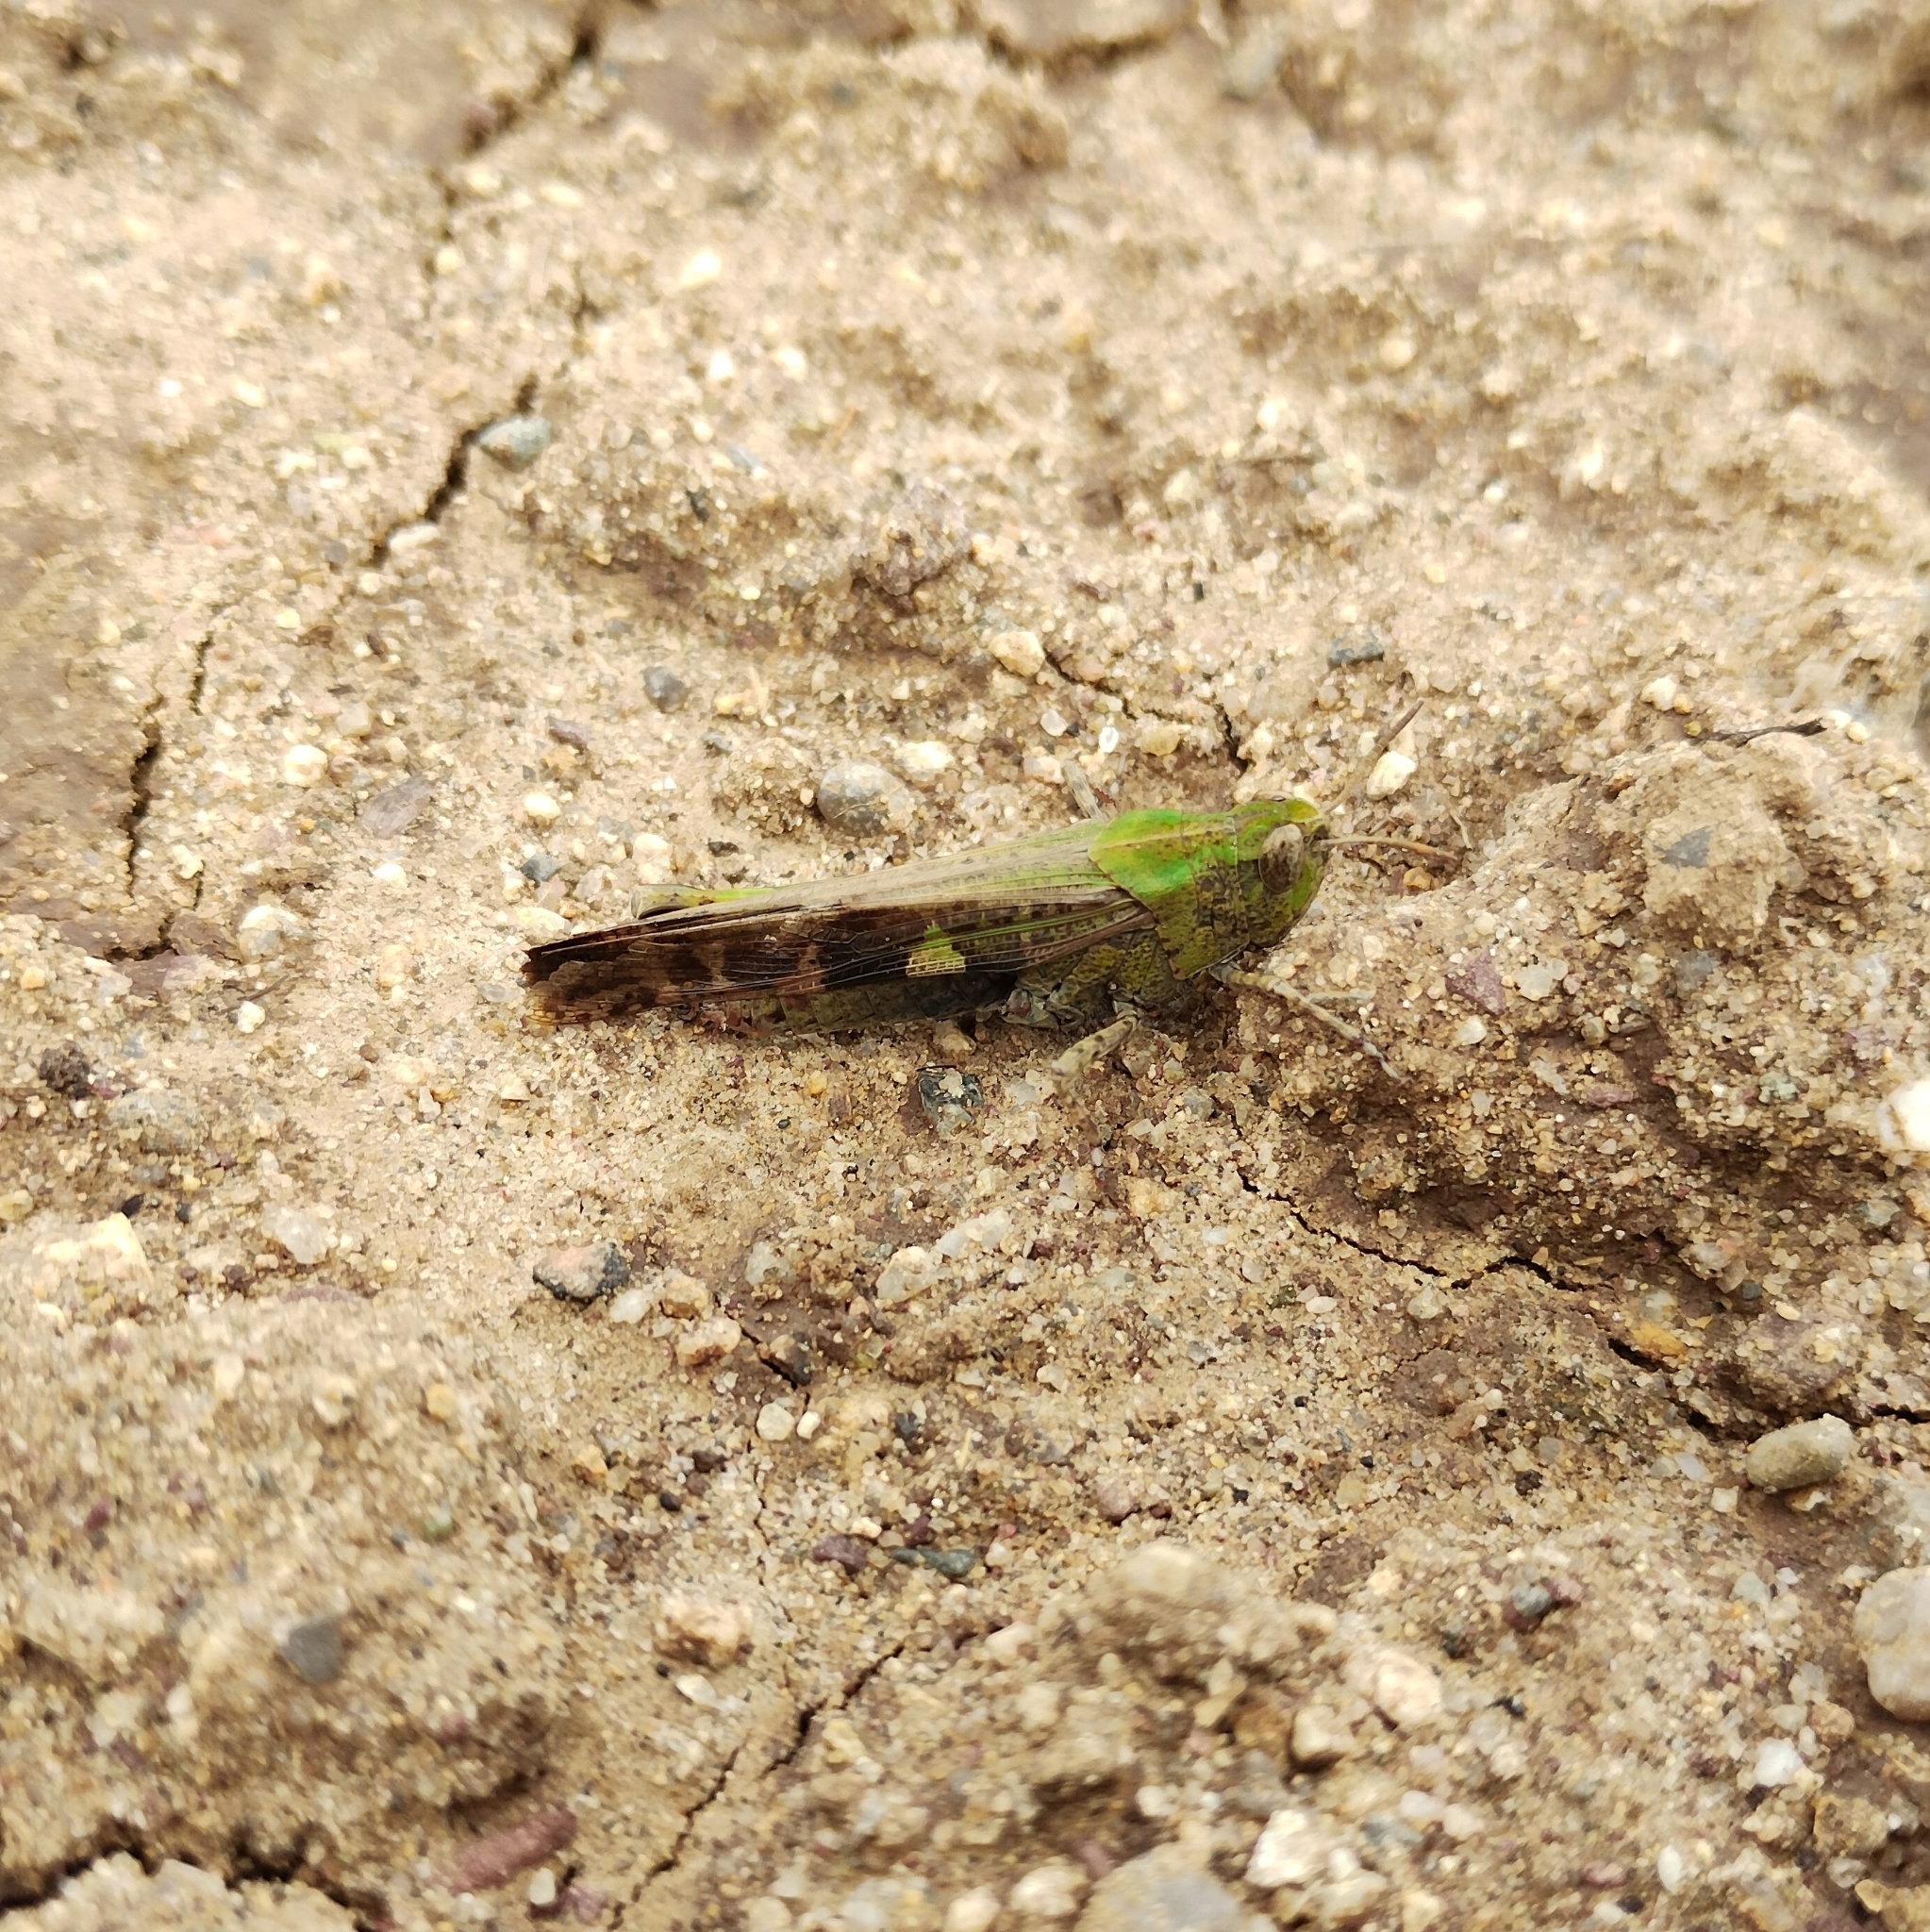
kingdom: Animalia
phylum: Arthropoda
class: Insecta
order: Orthoptera
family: Acrididae
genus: Aiolopus
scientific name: Aiolopus strepens
